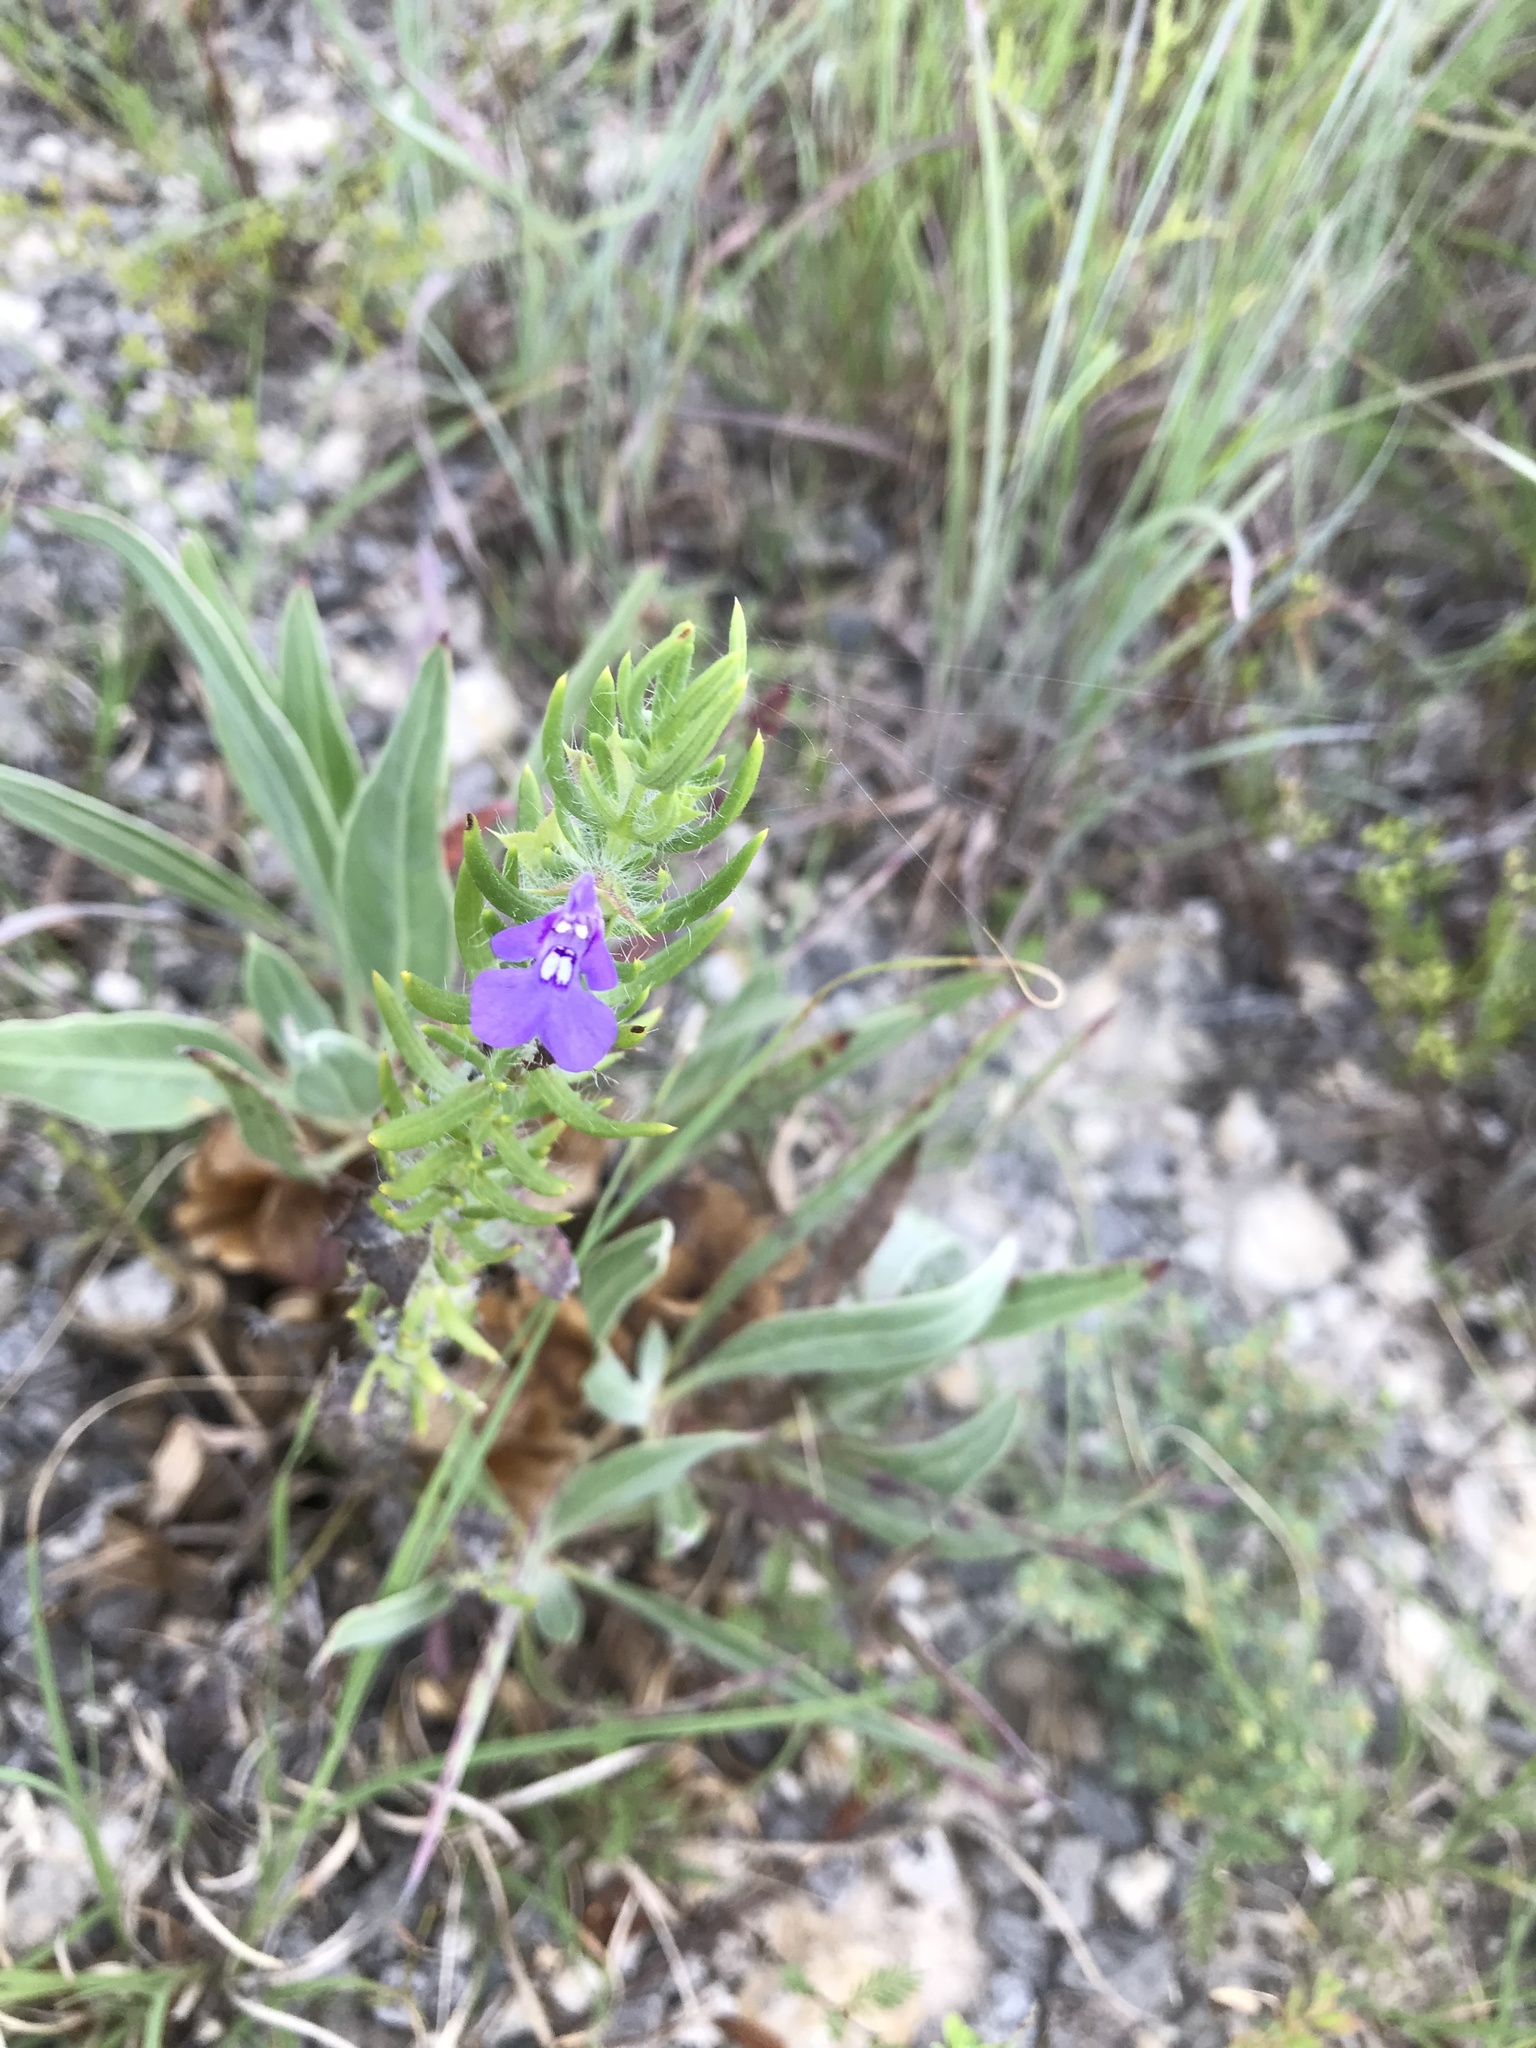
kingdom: Plantae
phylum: Tracheophyta
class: Magnoliopsida
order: Lamiales
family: Lamiaceae
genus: Salvia
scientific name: Salvia texana
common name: Texas sage
